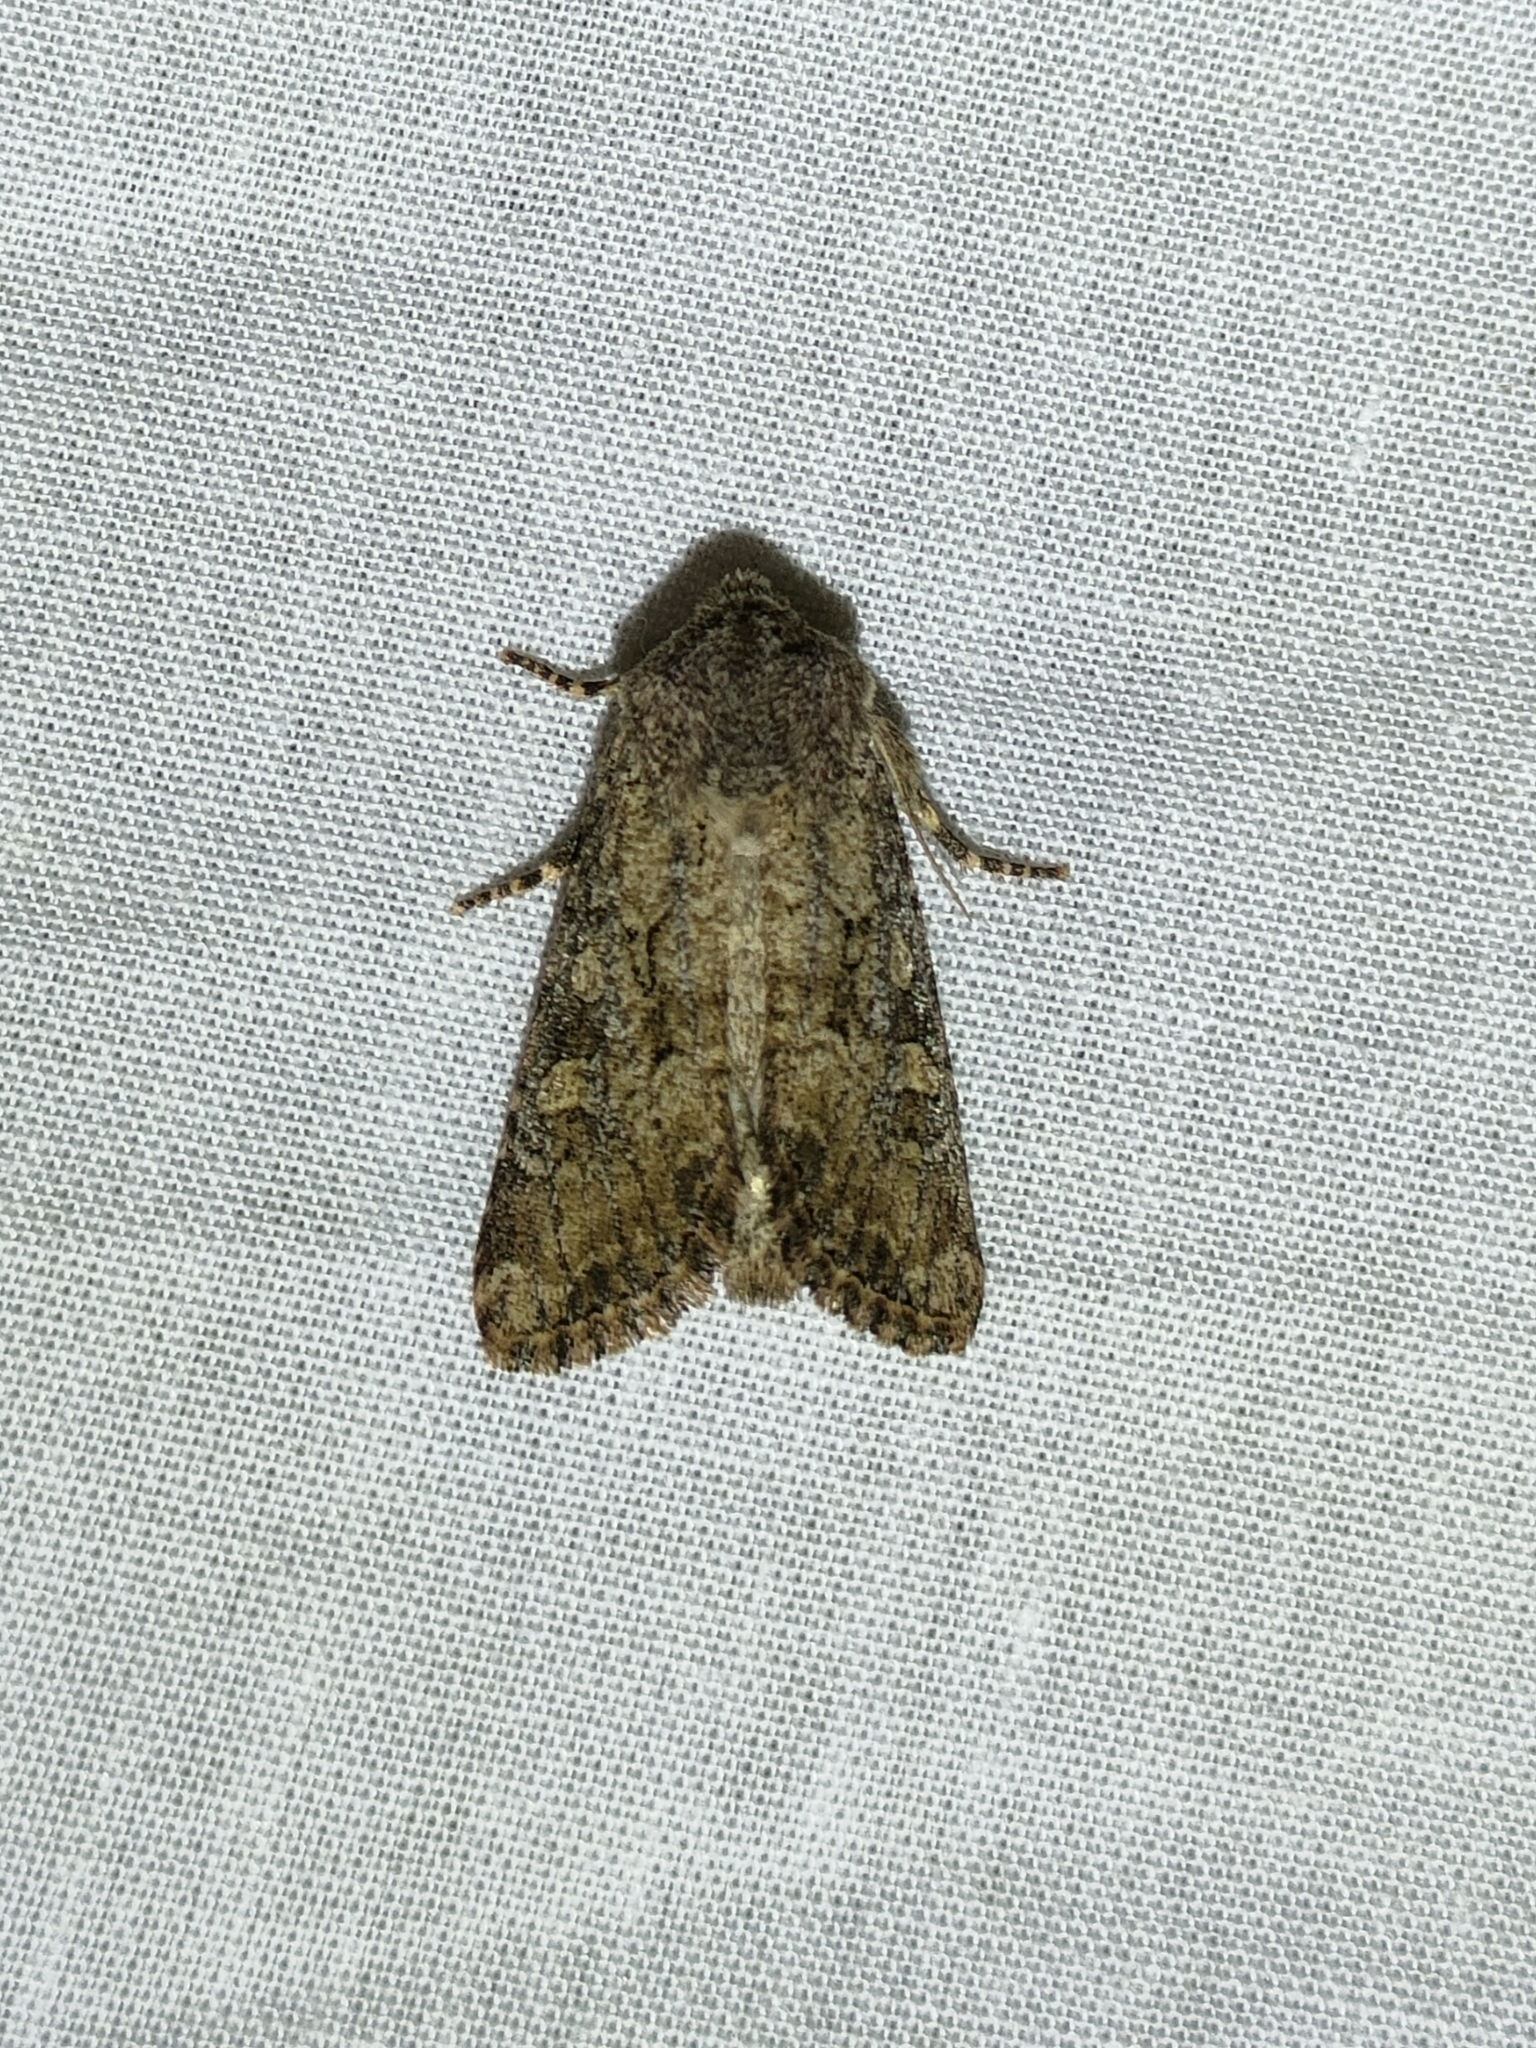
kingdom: Animalia
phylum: Arthropoda
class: Insecta
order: Lepidoptera
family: Noctuidae
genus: Luperina
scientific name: Luperina testacea
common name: Flounced rustic
